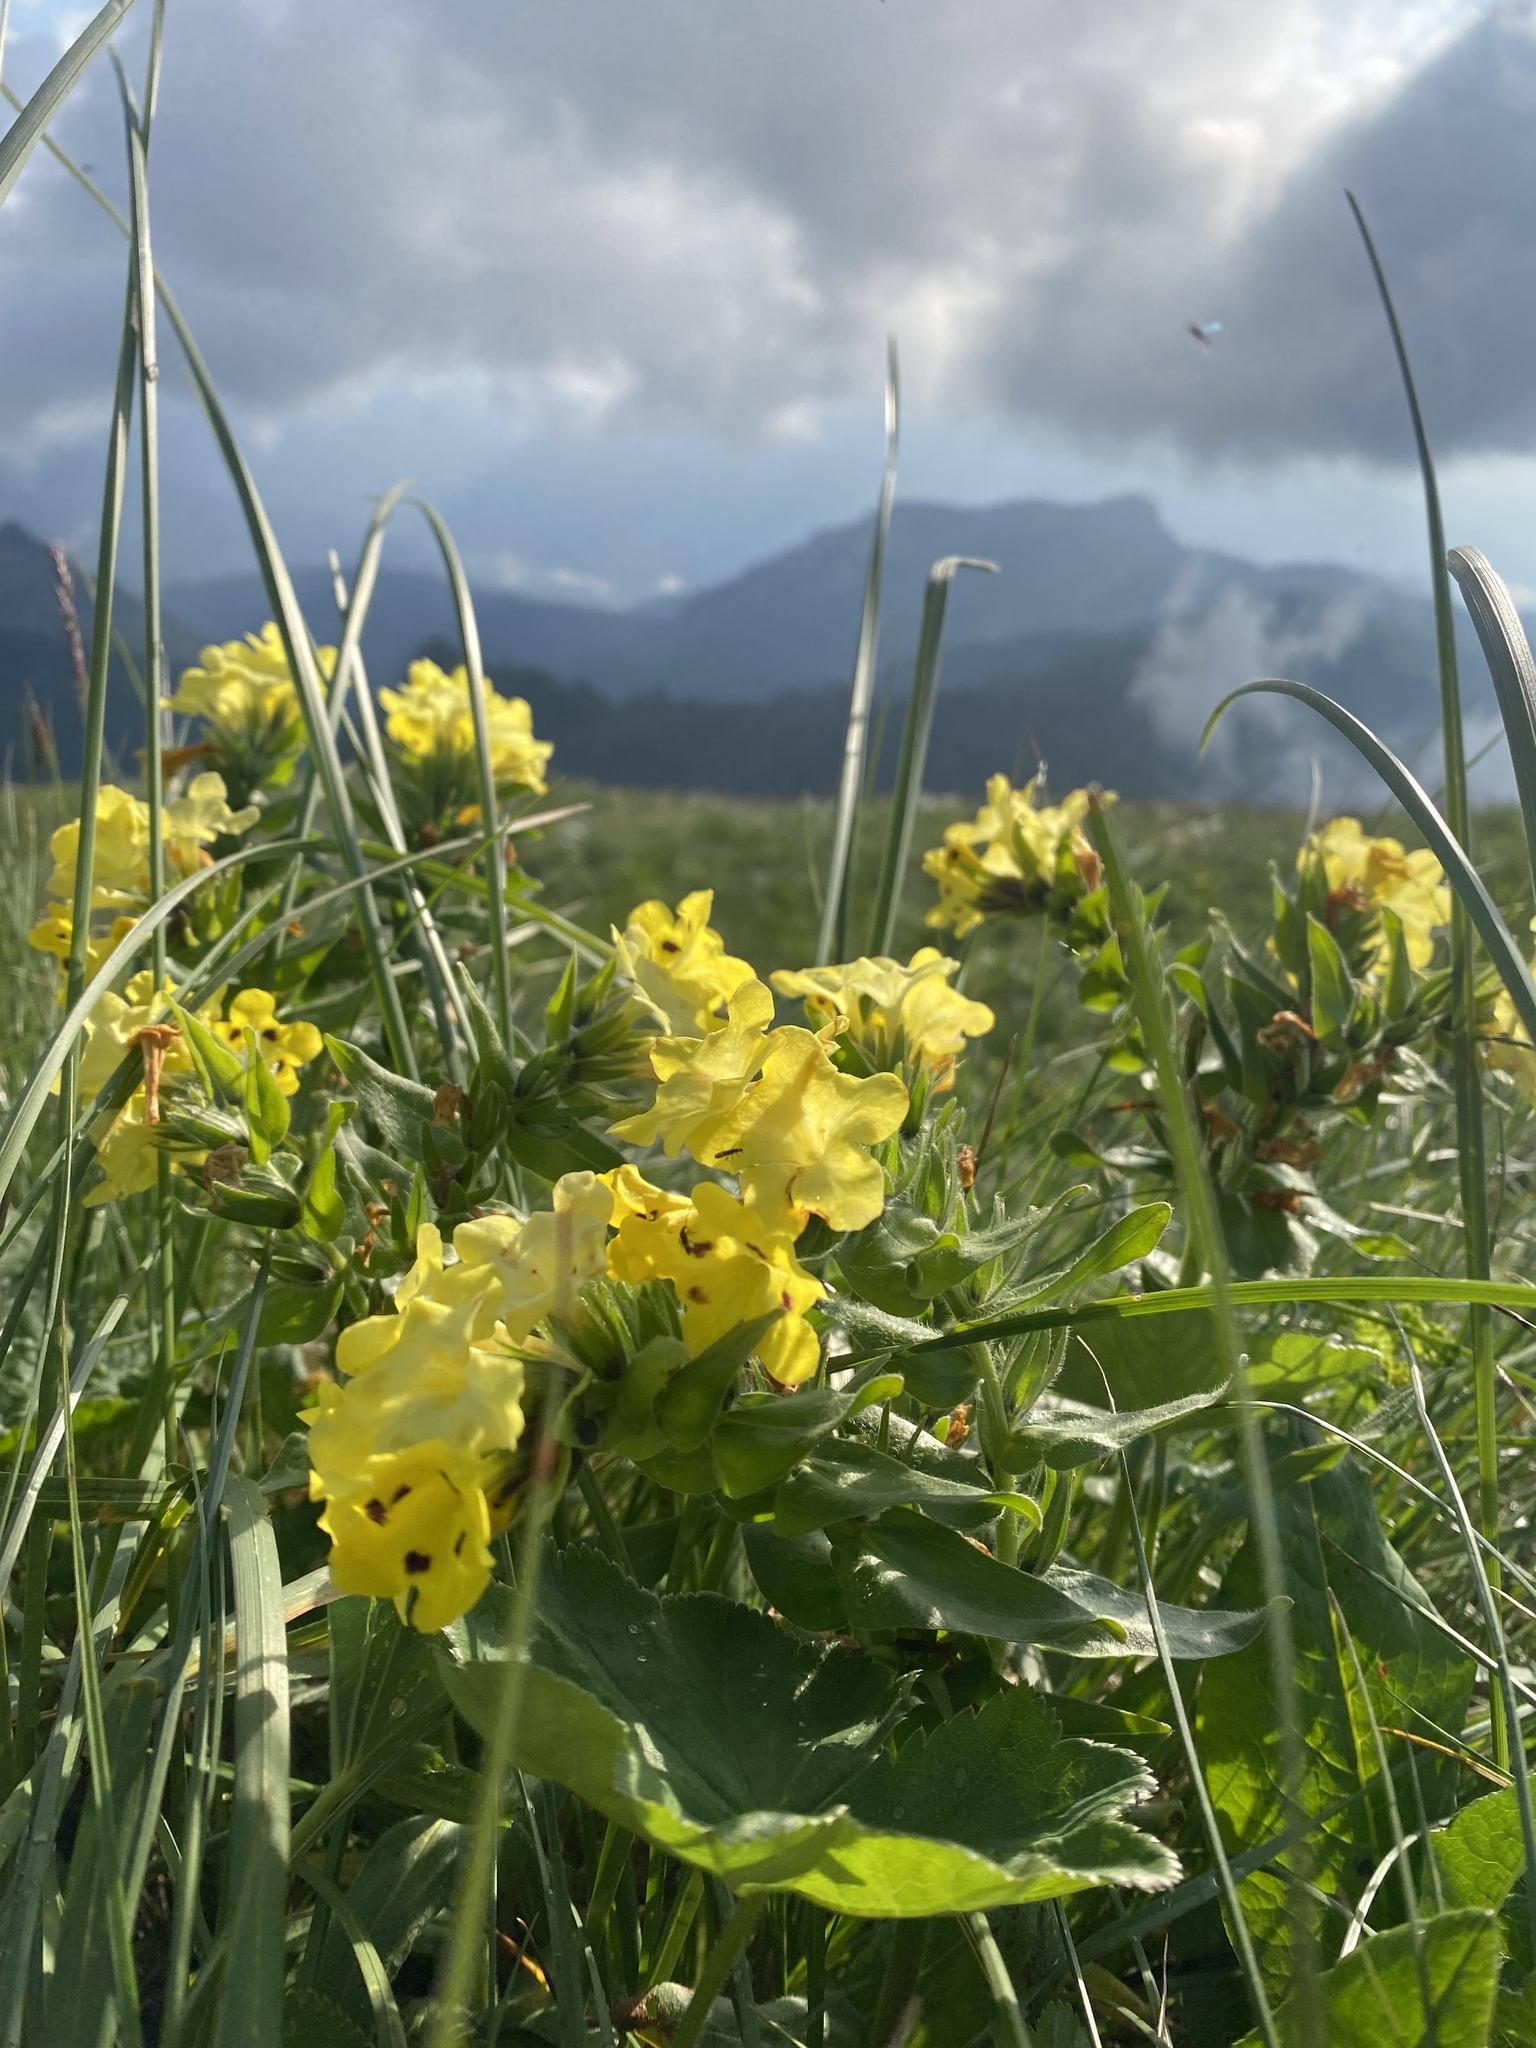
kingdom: Plantae
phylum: Tracheophyta
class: Magnoliopsida
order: Boraginales
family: Boraginaceae
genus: Huynhia
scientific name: Huynhia pulchra
